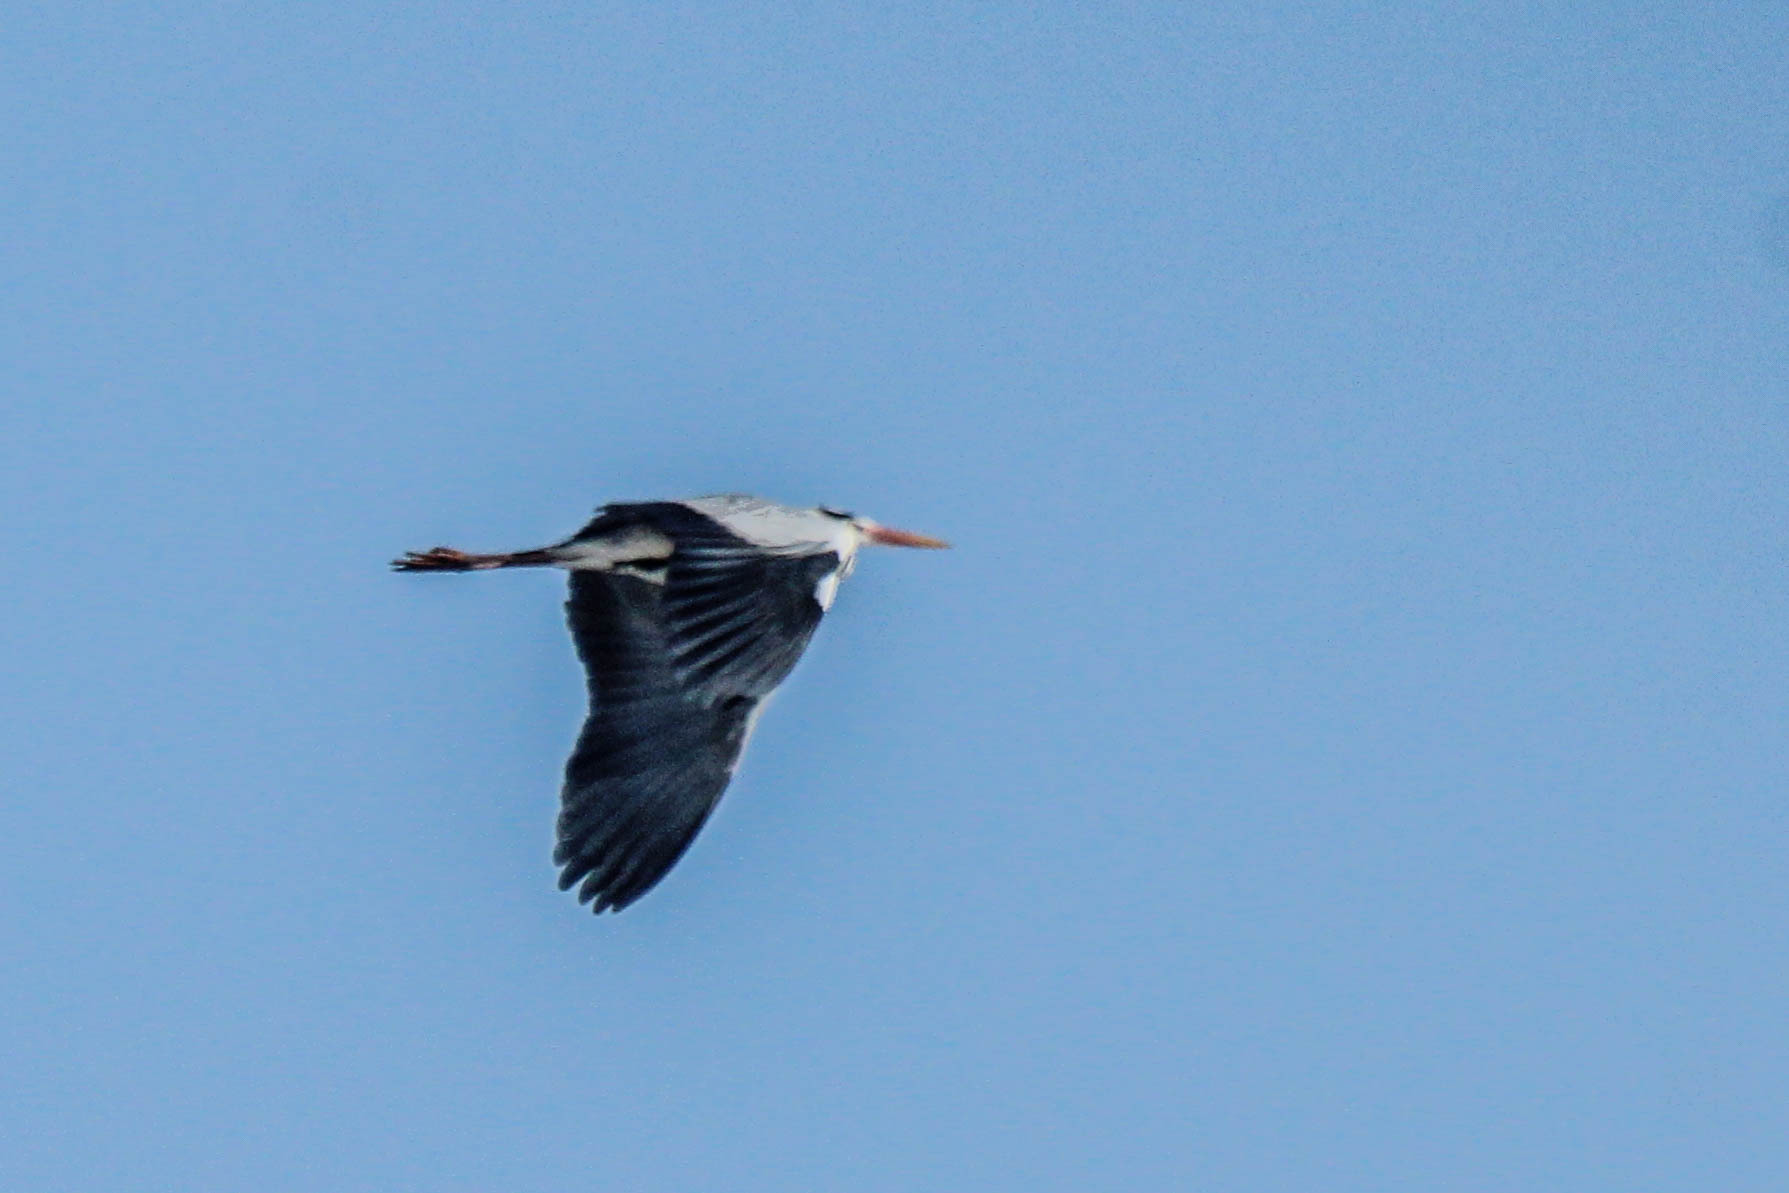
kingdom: Animalia
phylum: Chordata
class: Aves
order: Pelecaniformes
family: Ardeidae
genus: Ardea
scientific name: Ardea cinerea
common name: Grey heron
